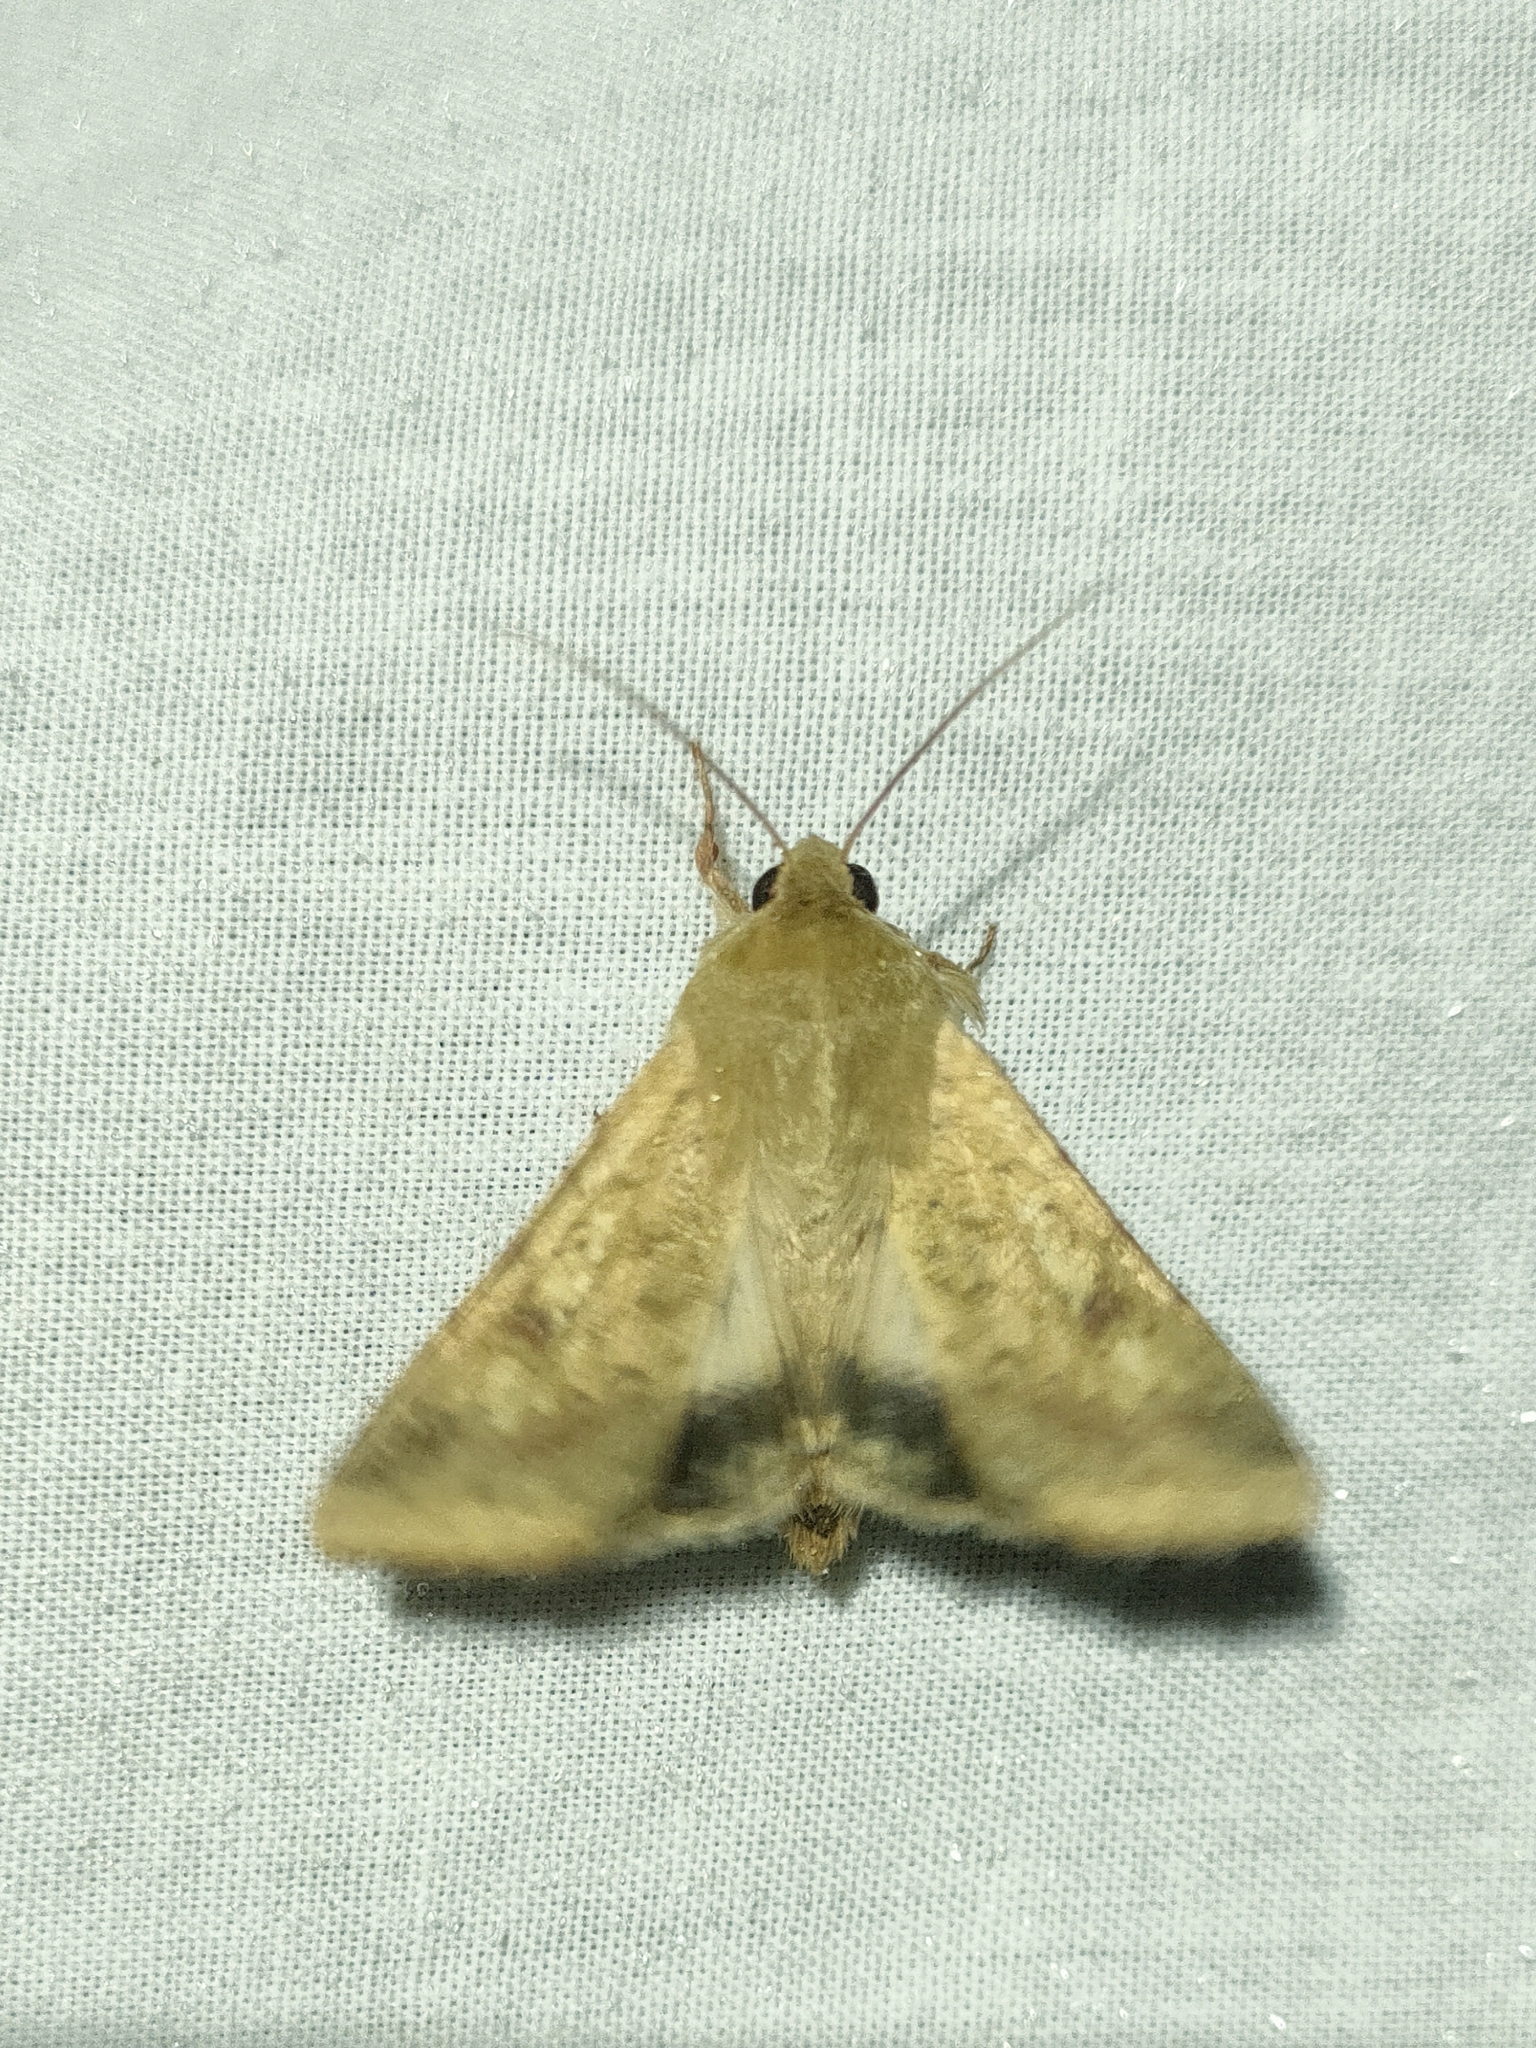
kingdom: Animalia
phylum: Arthropoda
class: Insecta
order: Lepidoptera
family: Noctuidae
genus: Helicoverpa
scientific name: Helicoverpa armigera
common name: Cotton bollworm
